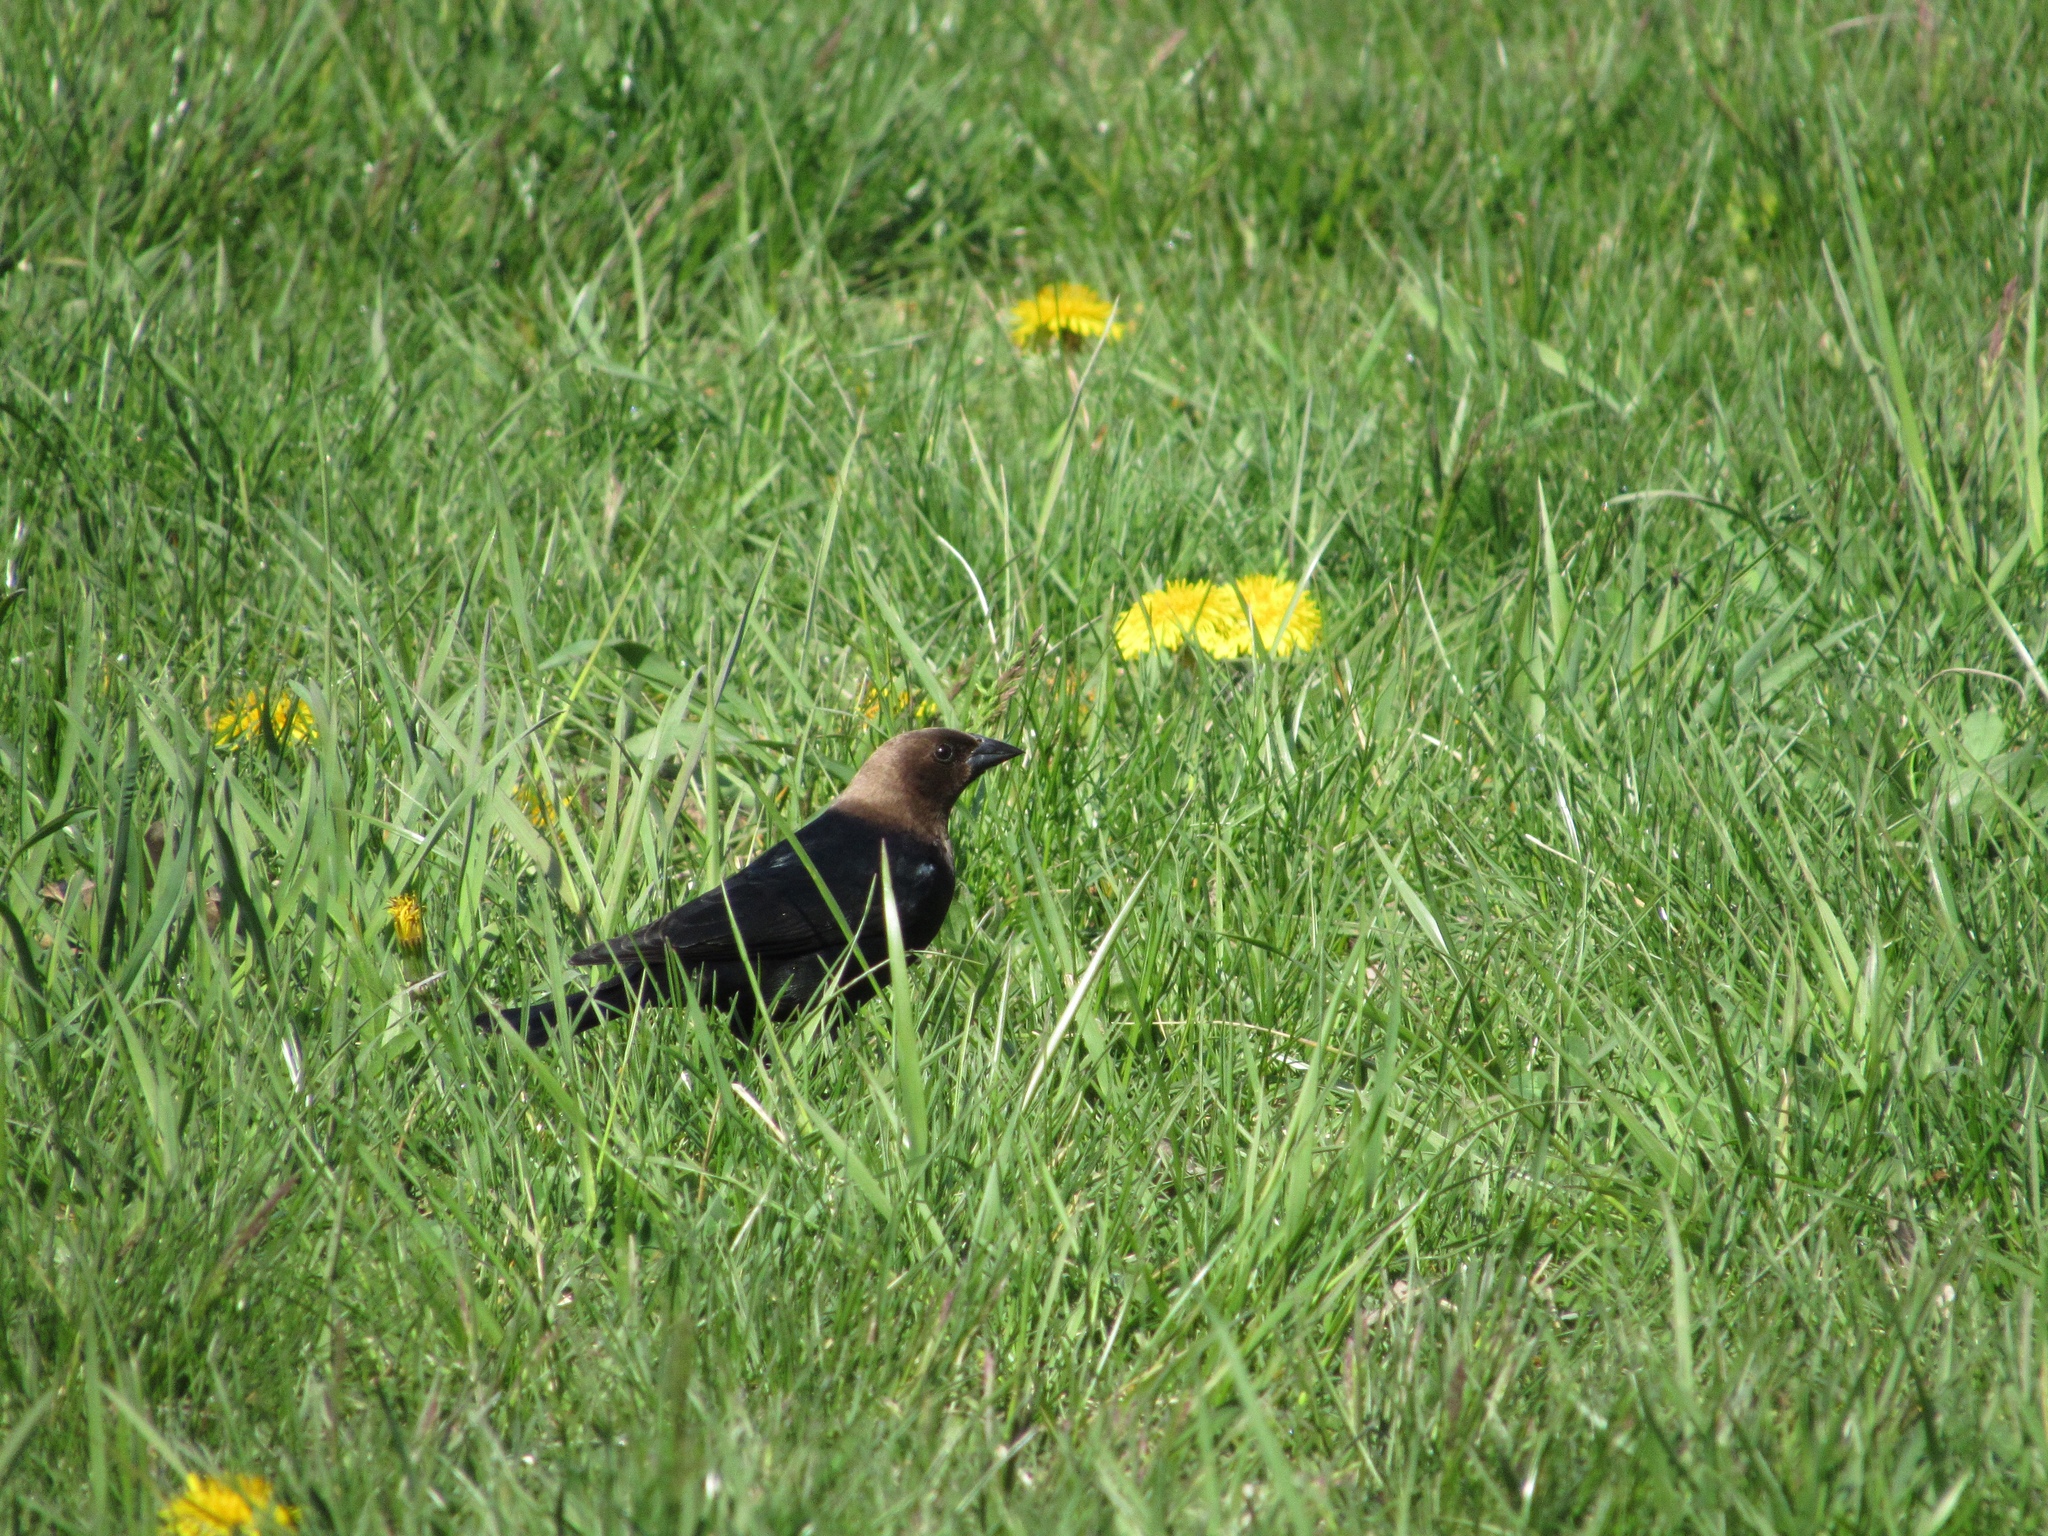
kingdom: Animalia
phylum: Chordata
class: Aves
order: Passeriformes
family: Icteridae
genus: Molothrus
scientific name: Molothrus ater
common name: Brown-headed cowbird
